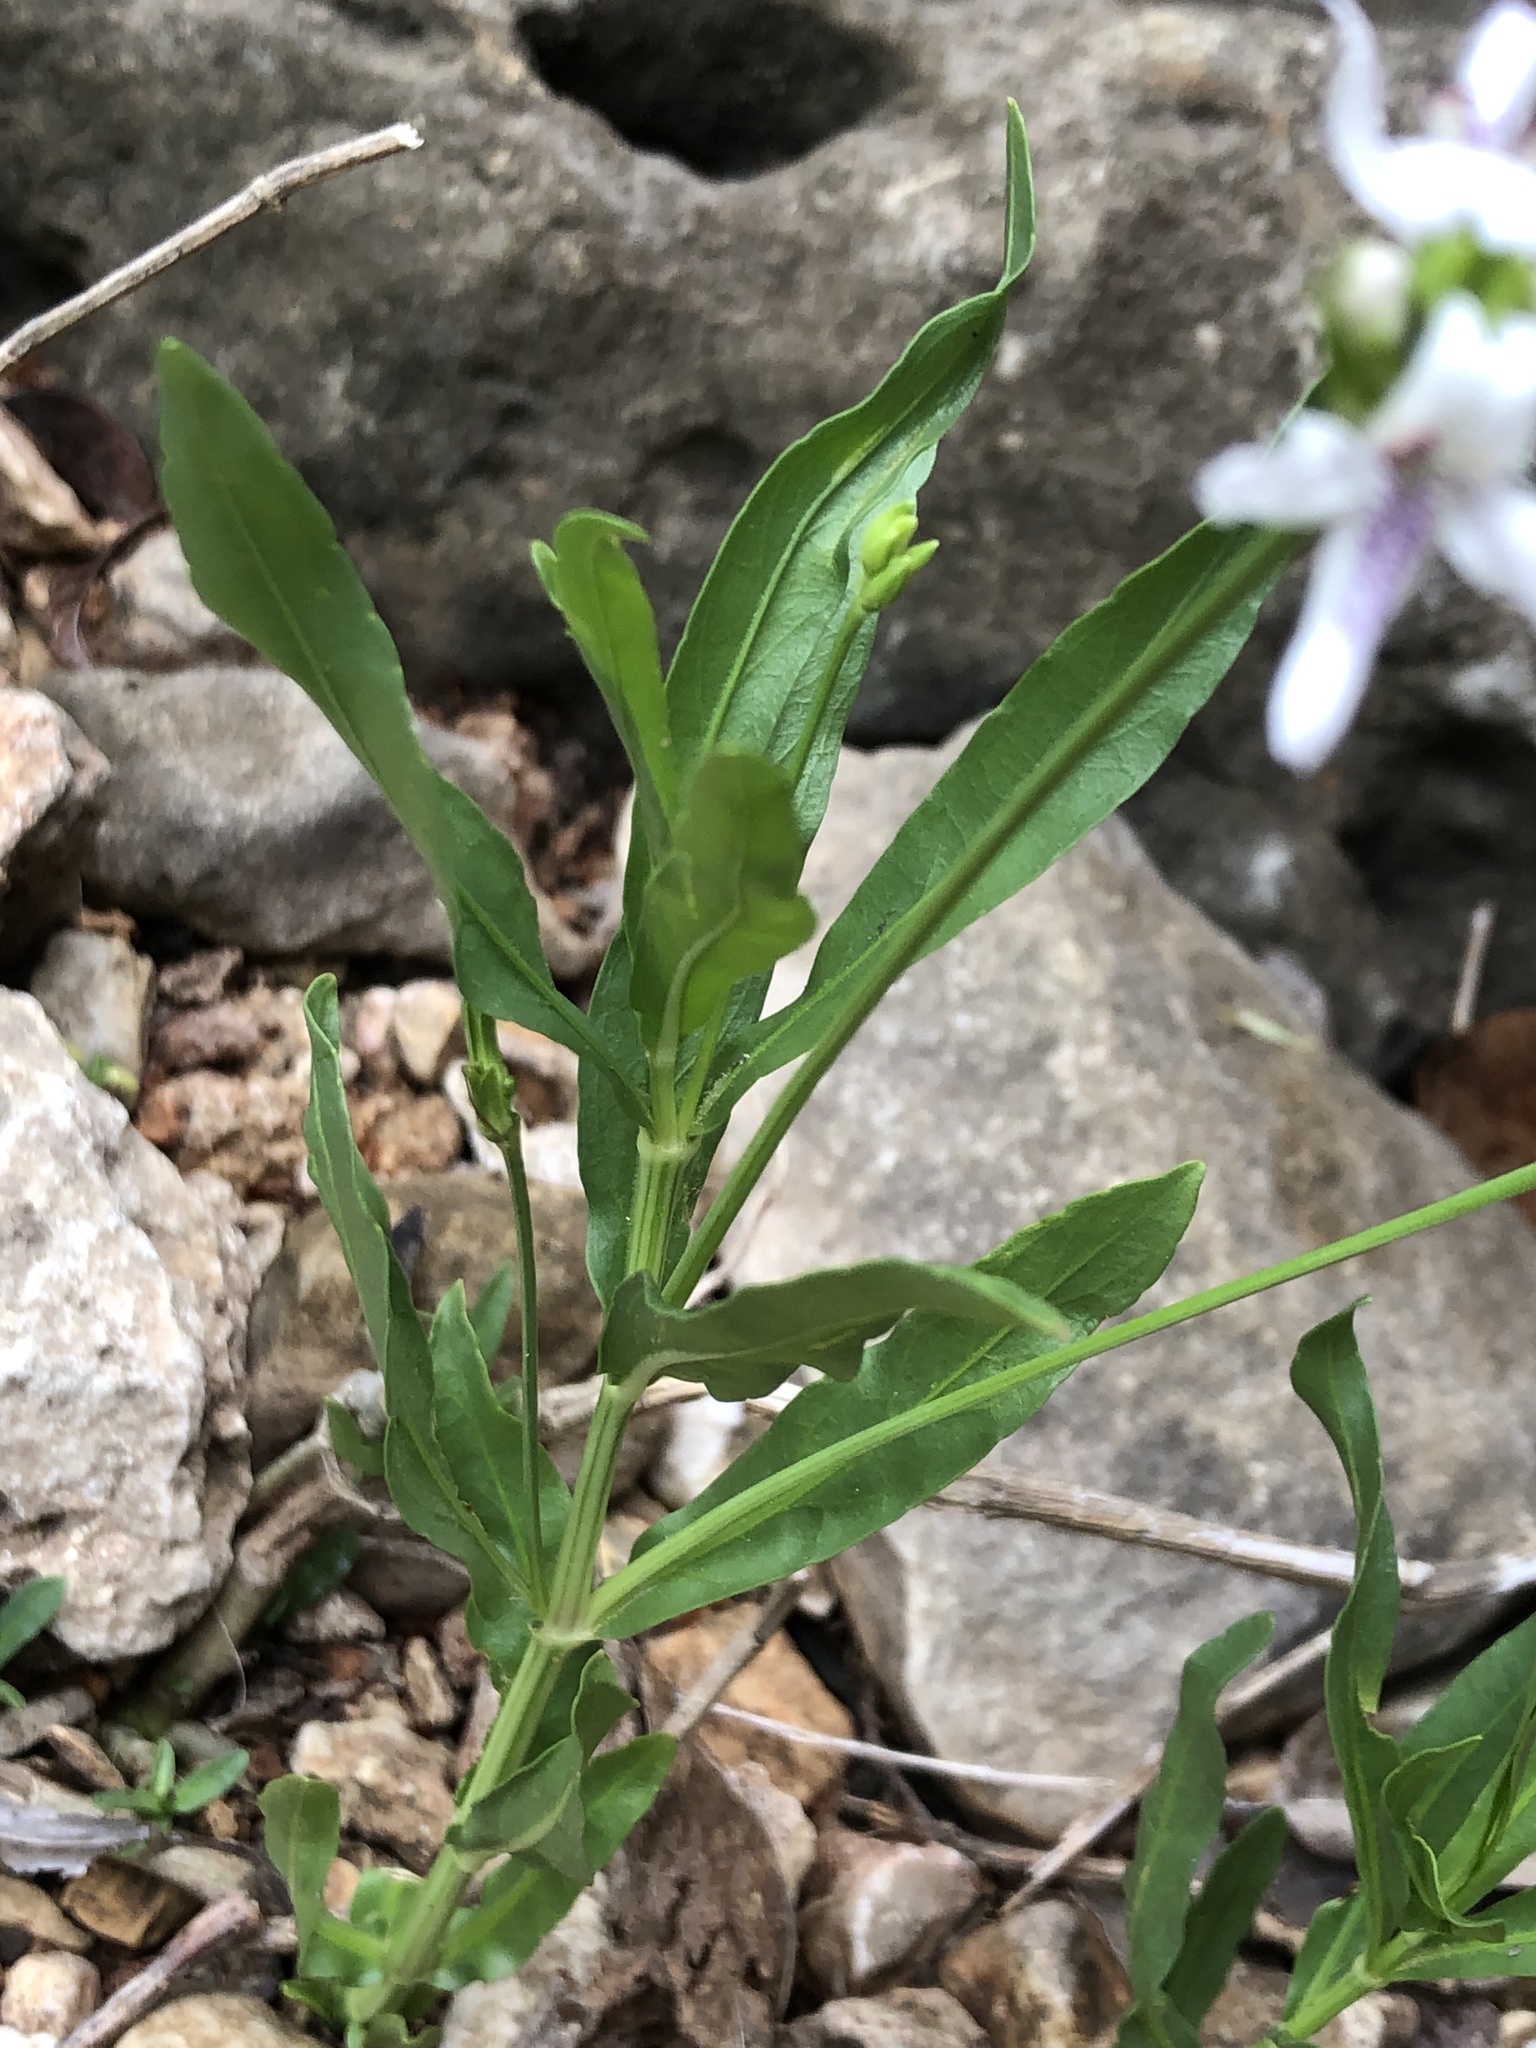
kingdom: Plantae
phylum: Tracheophyta
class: Magnoliopsida
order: Lamiales
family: Acanthaceae
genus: Dianthera
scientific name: Dianthera americana
